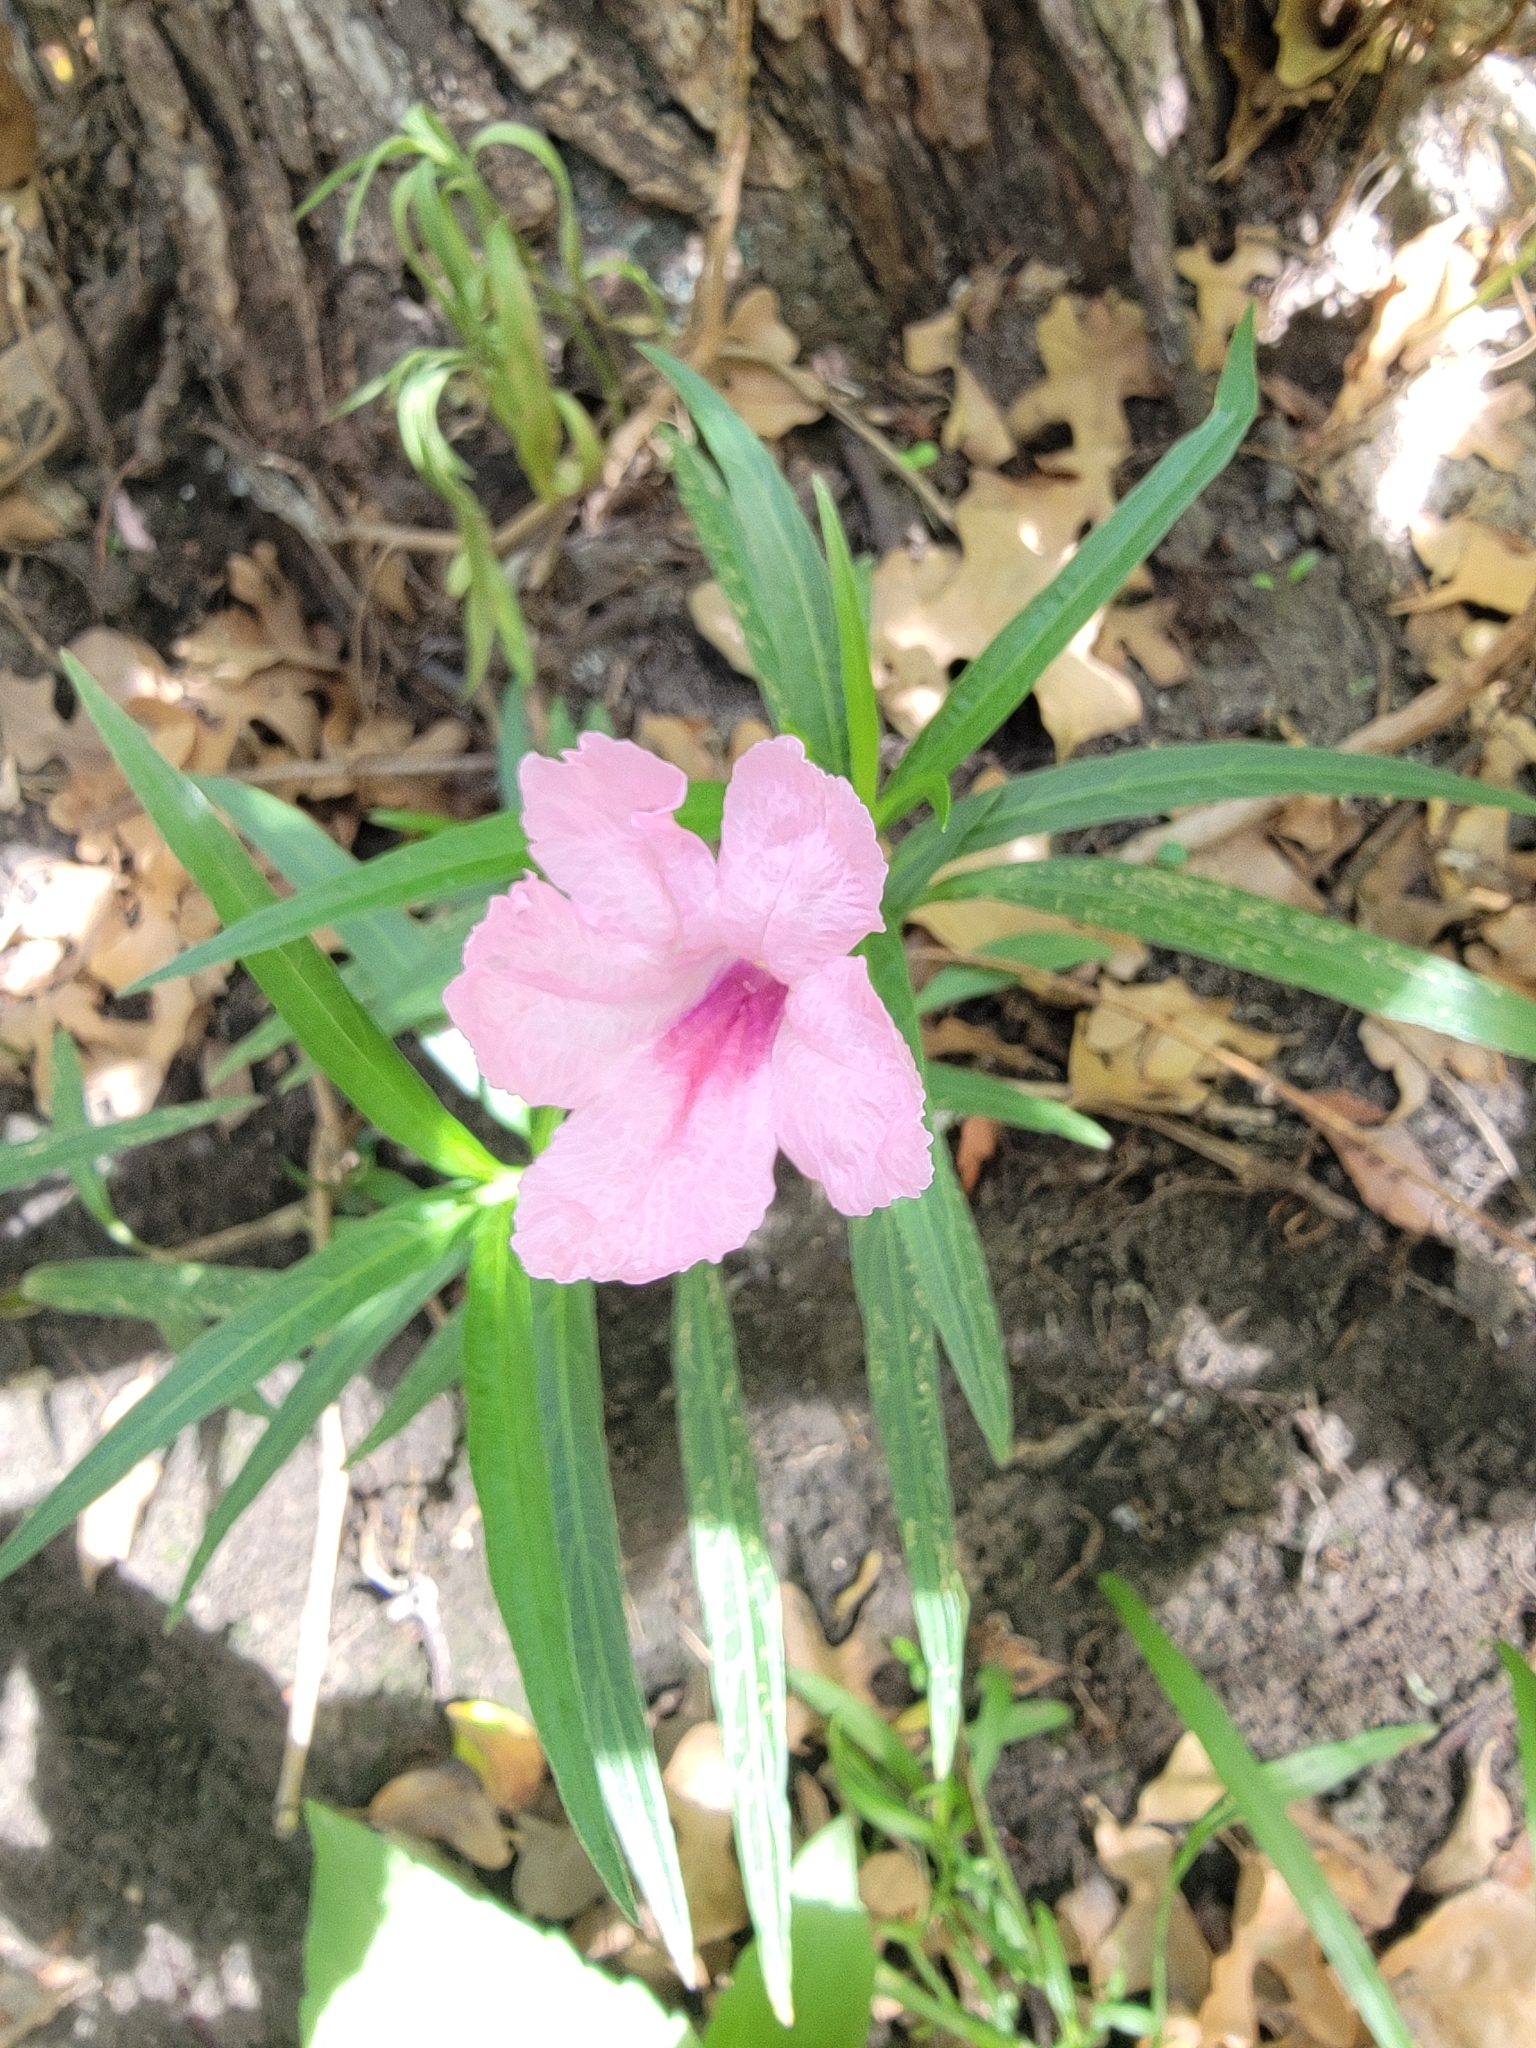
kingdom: Plantae
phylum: Tracheophyta
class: Magnoliopsida
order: Lamiales
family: Acanthaceae
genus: Ruellia
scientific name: Ruellia simplex
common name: Softseed wild petunia
